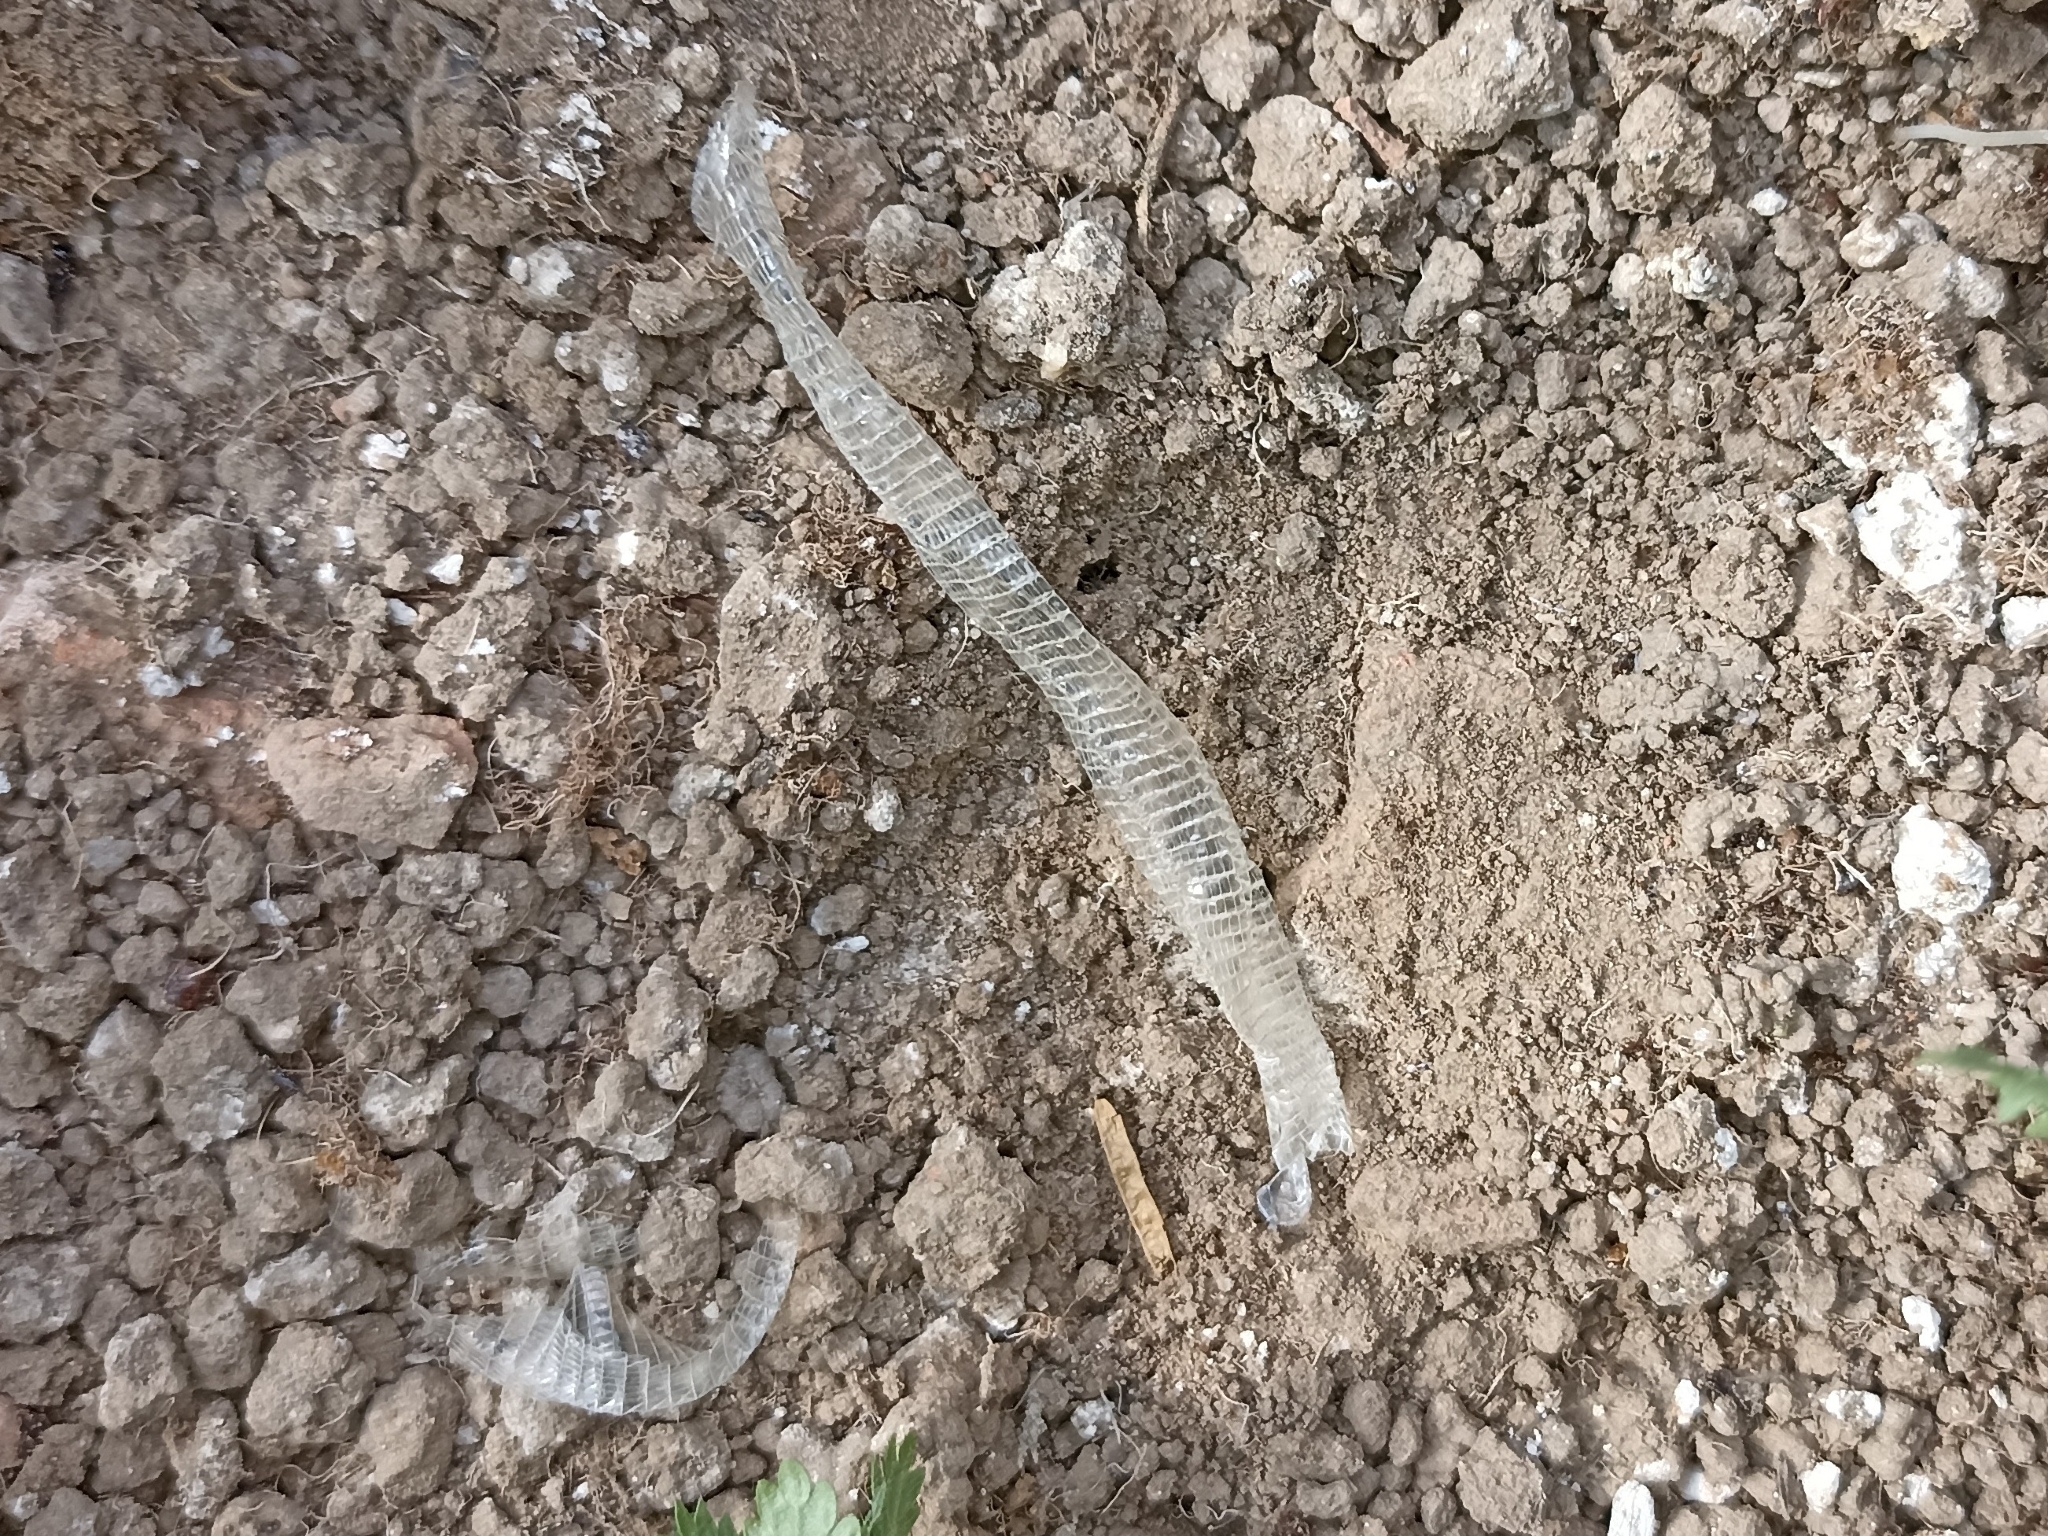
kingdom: Animalia
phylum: Chordata
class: Squamata
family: Blanidae
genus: Blanus
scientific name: Blanus vandellii
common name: Vandelli's worm lizard
